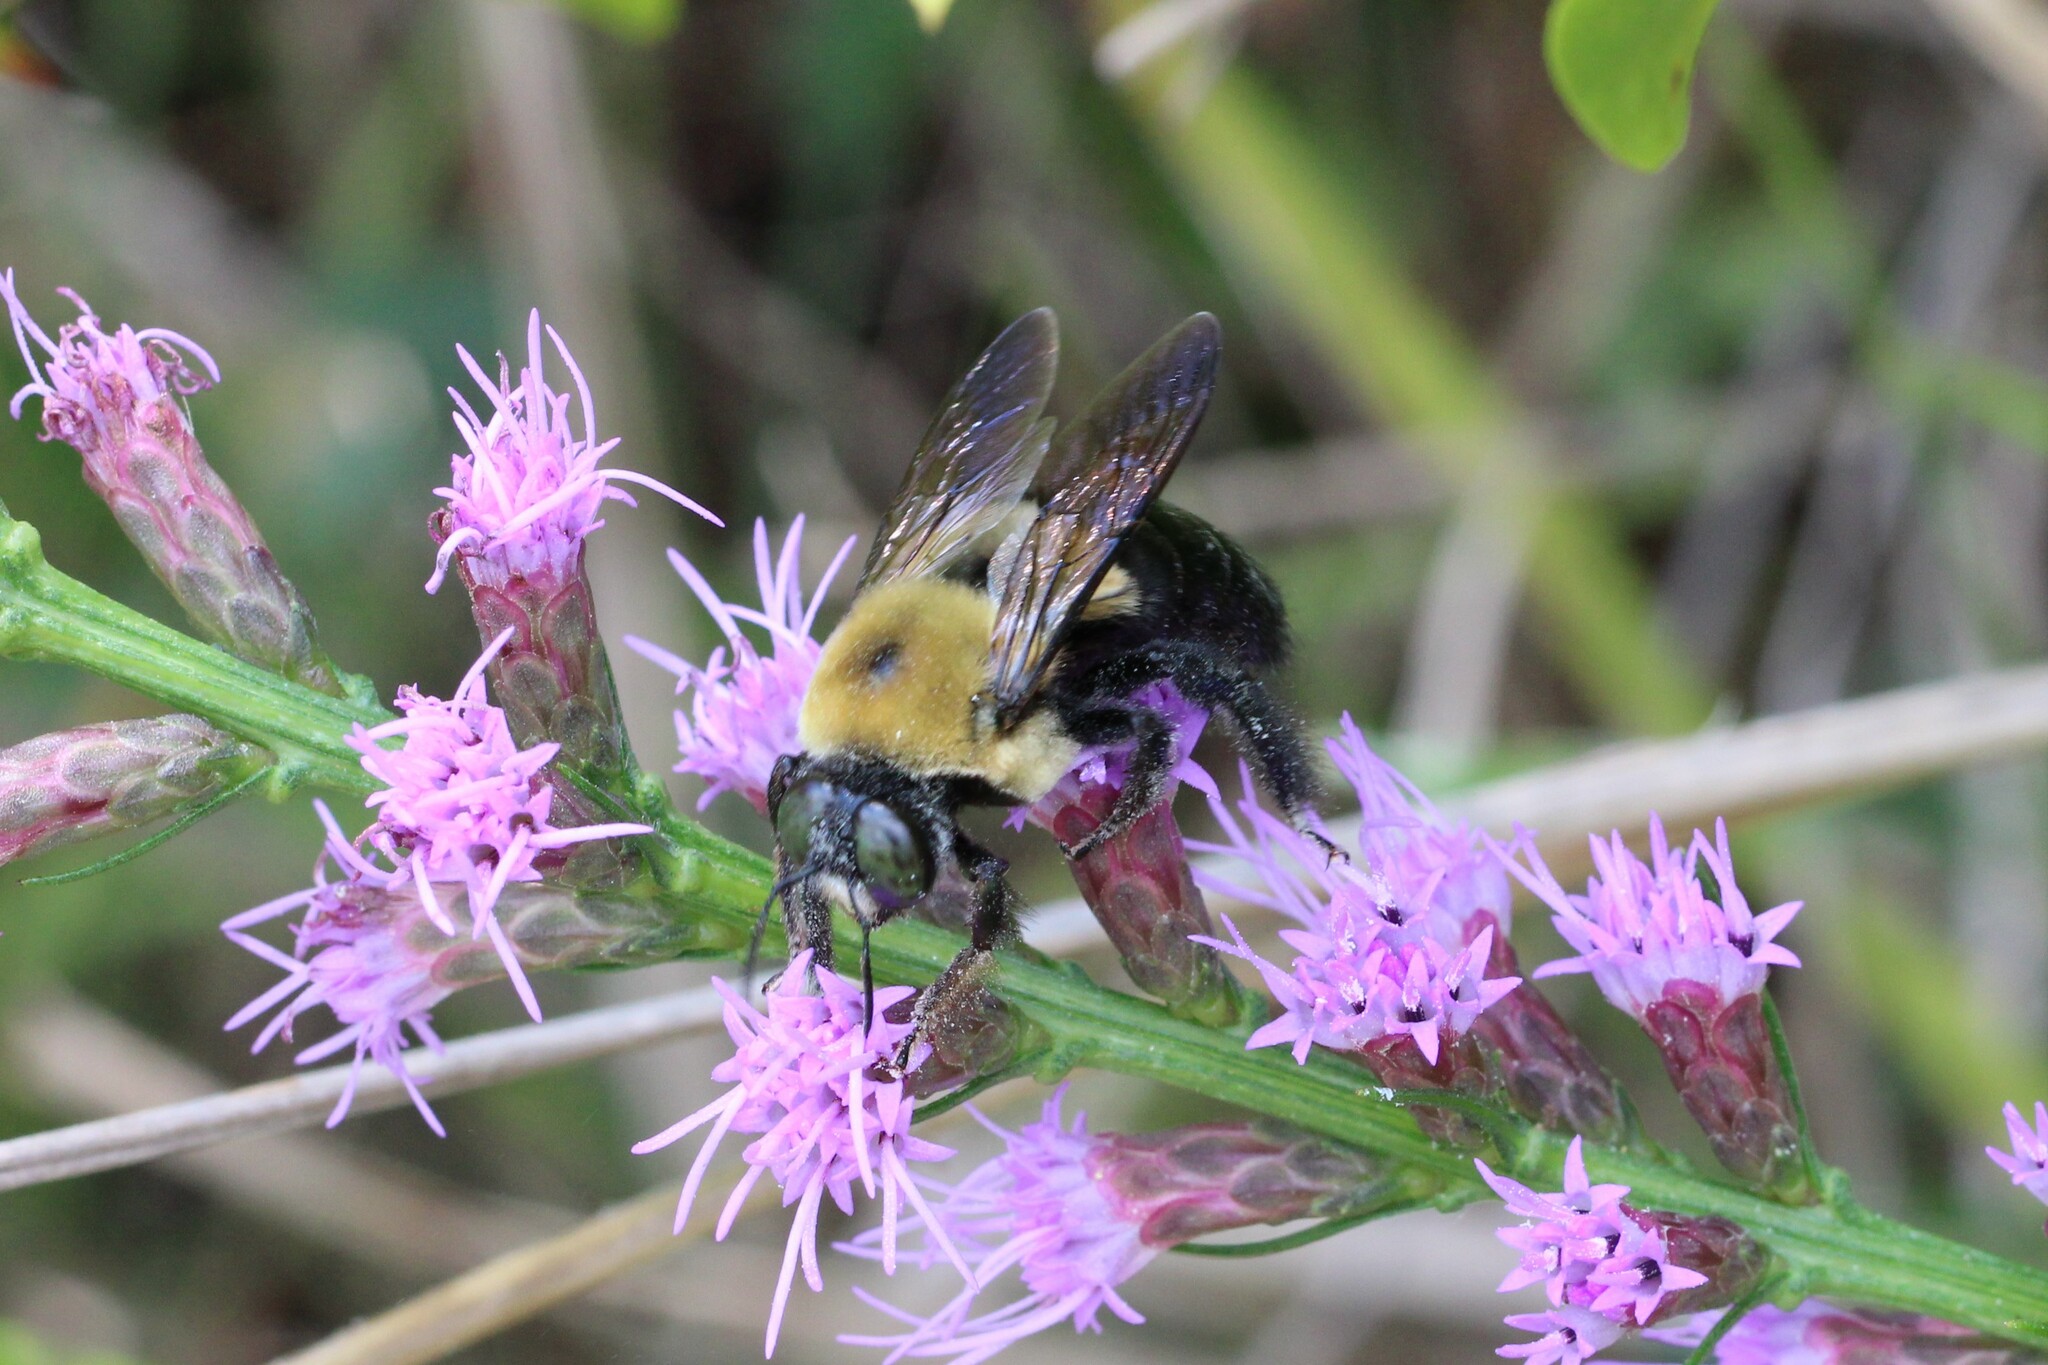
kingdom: Animalia
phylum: Arthropoda
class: Insecta
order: Hymenoptera
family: Apidae
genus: Xylocopa
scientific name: Xylocopa virginica
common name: Carpenter bee
